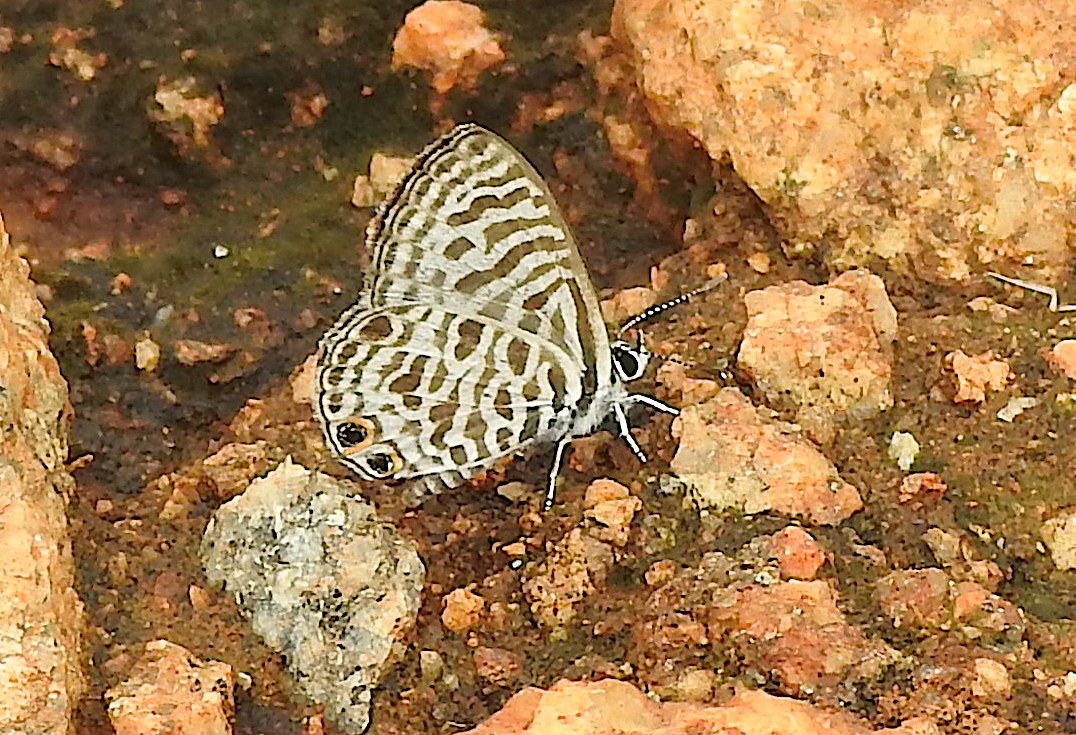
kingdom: Animalia
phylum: Arthropoda
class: Insecta
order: Lepidoptera
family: Lycaenidae
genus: Leptotes
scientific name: Leptotes plinius
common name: Zebra blue
